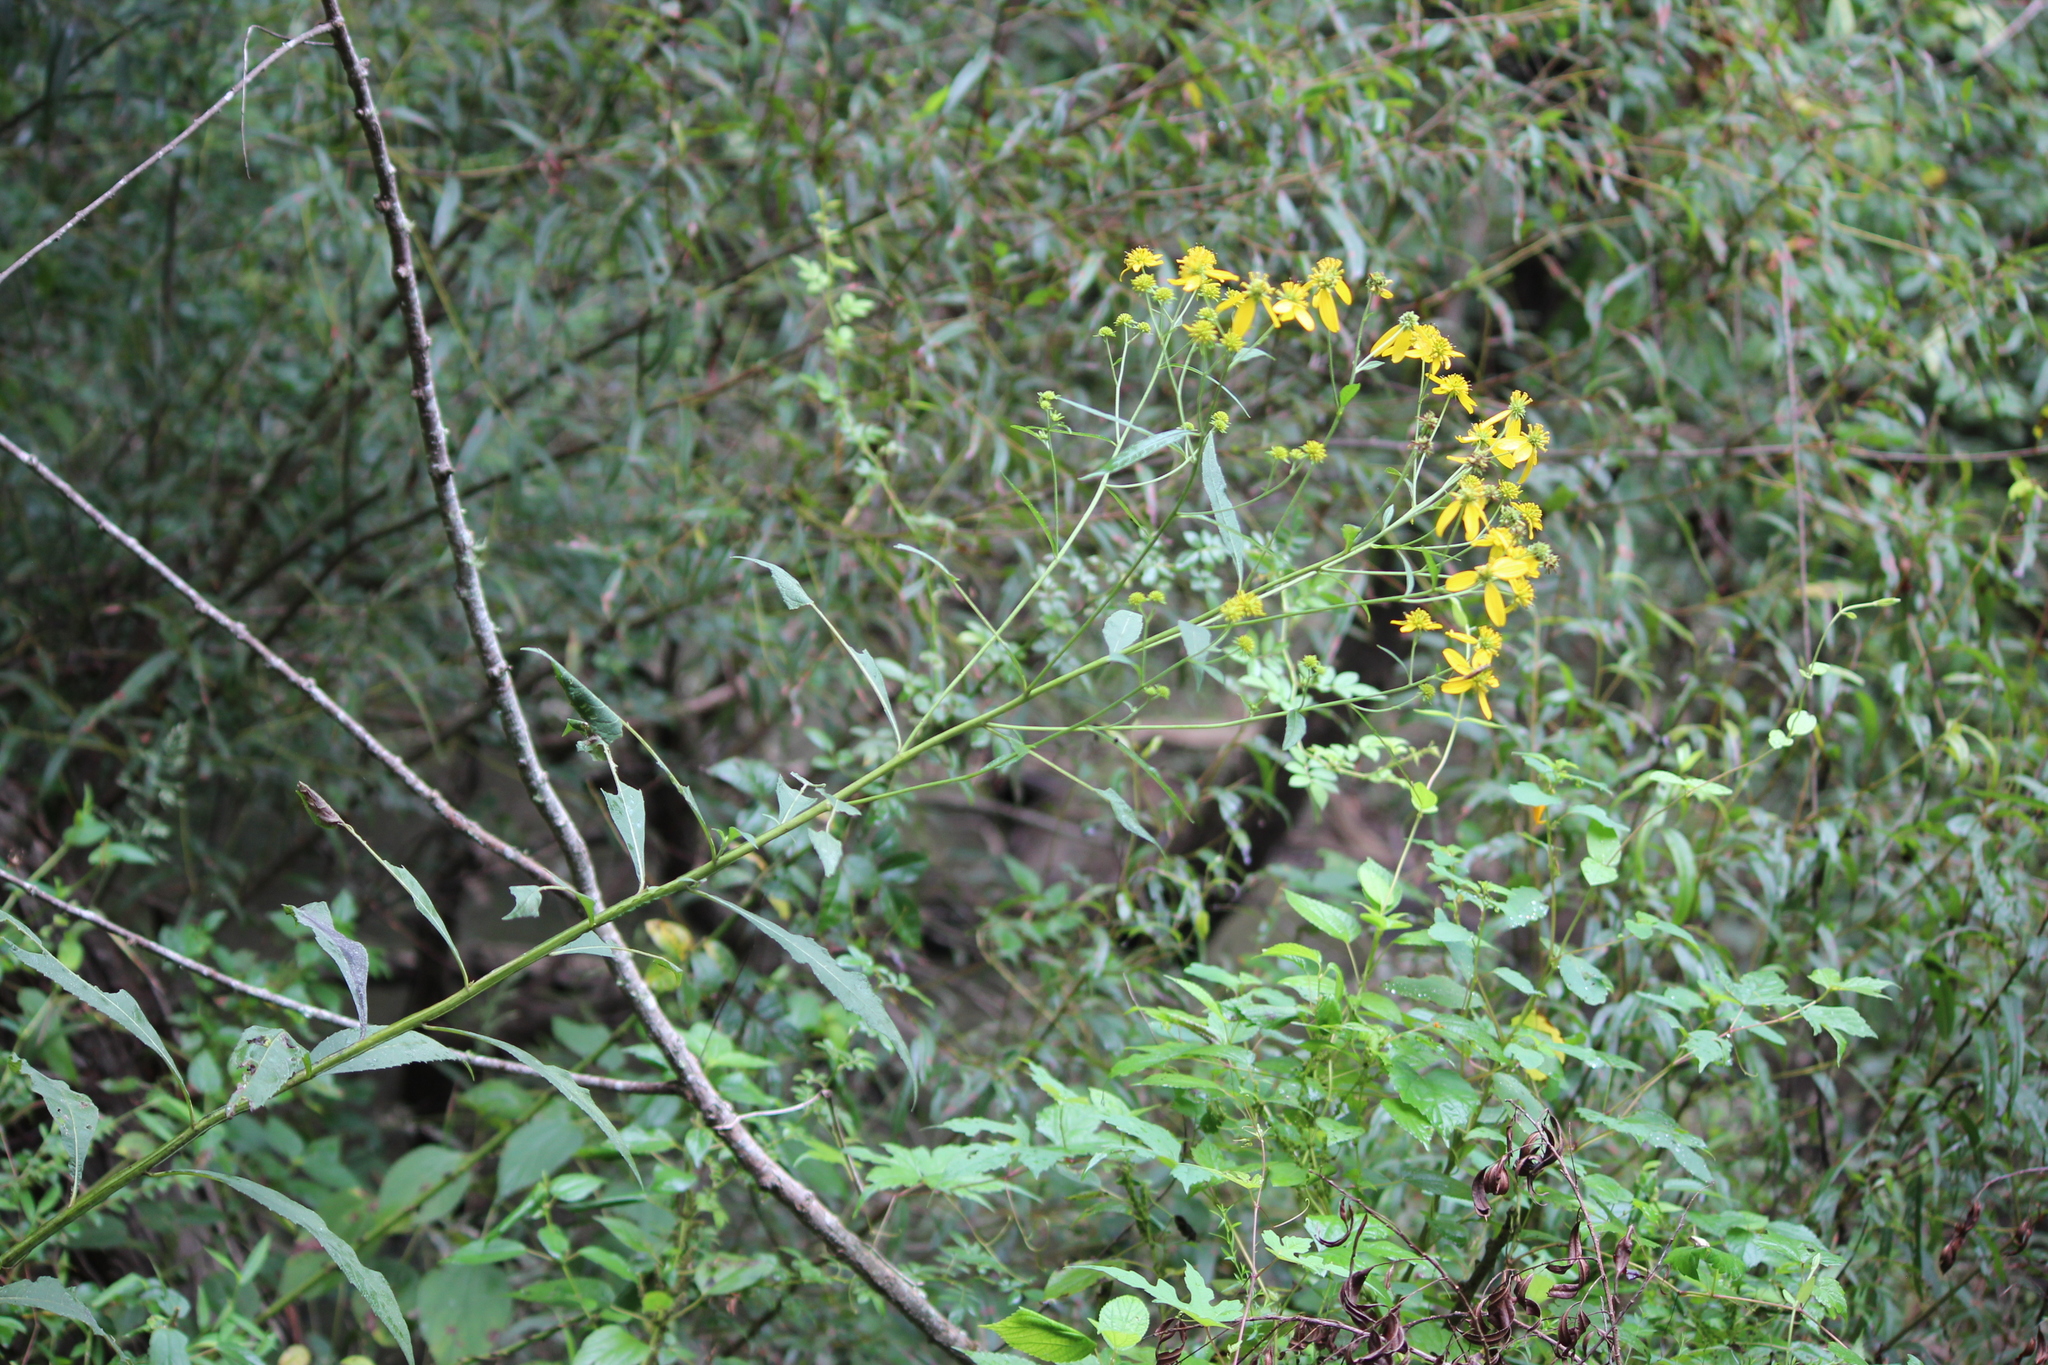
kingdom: Plantae
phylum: Tracheophyta
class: Magnoliopsida
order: Asterales
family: Asteraceae
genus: Verbesina
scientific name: Verbesina alternifolia
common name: Wingstem
